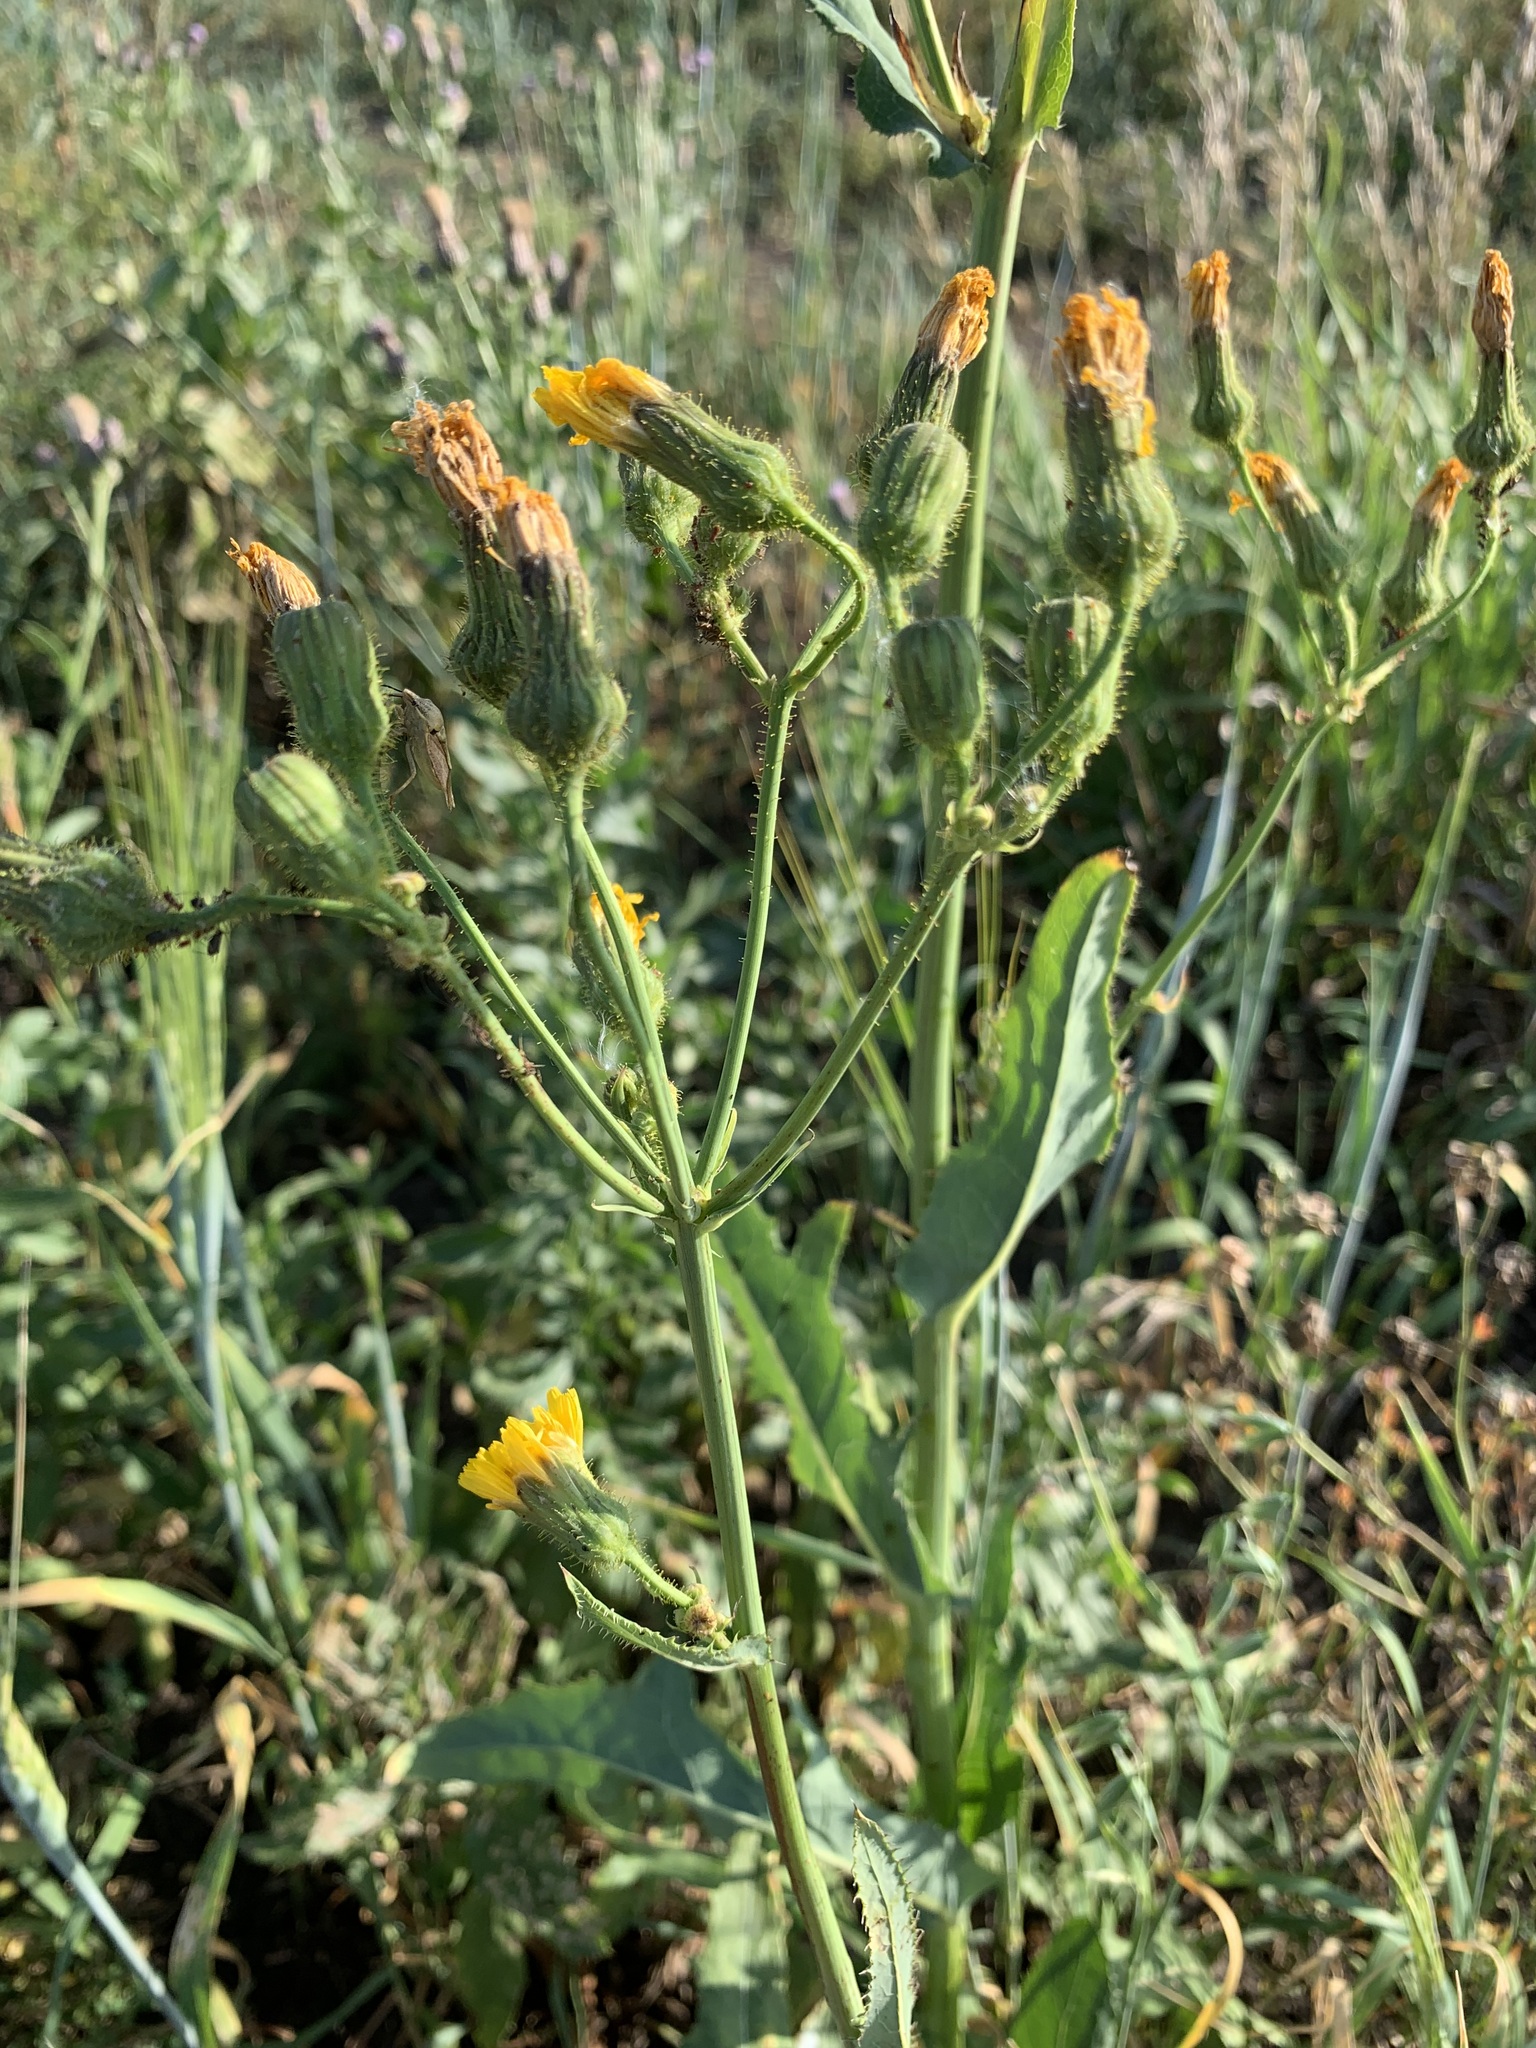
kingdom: Plantae
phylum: Tracheophyta
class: Magnoliopsida
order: Asterales
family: Asteraceae
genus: Sonchus
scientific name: Sonchus arvensis
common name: Perennial sow-thistle
